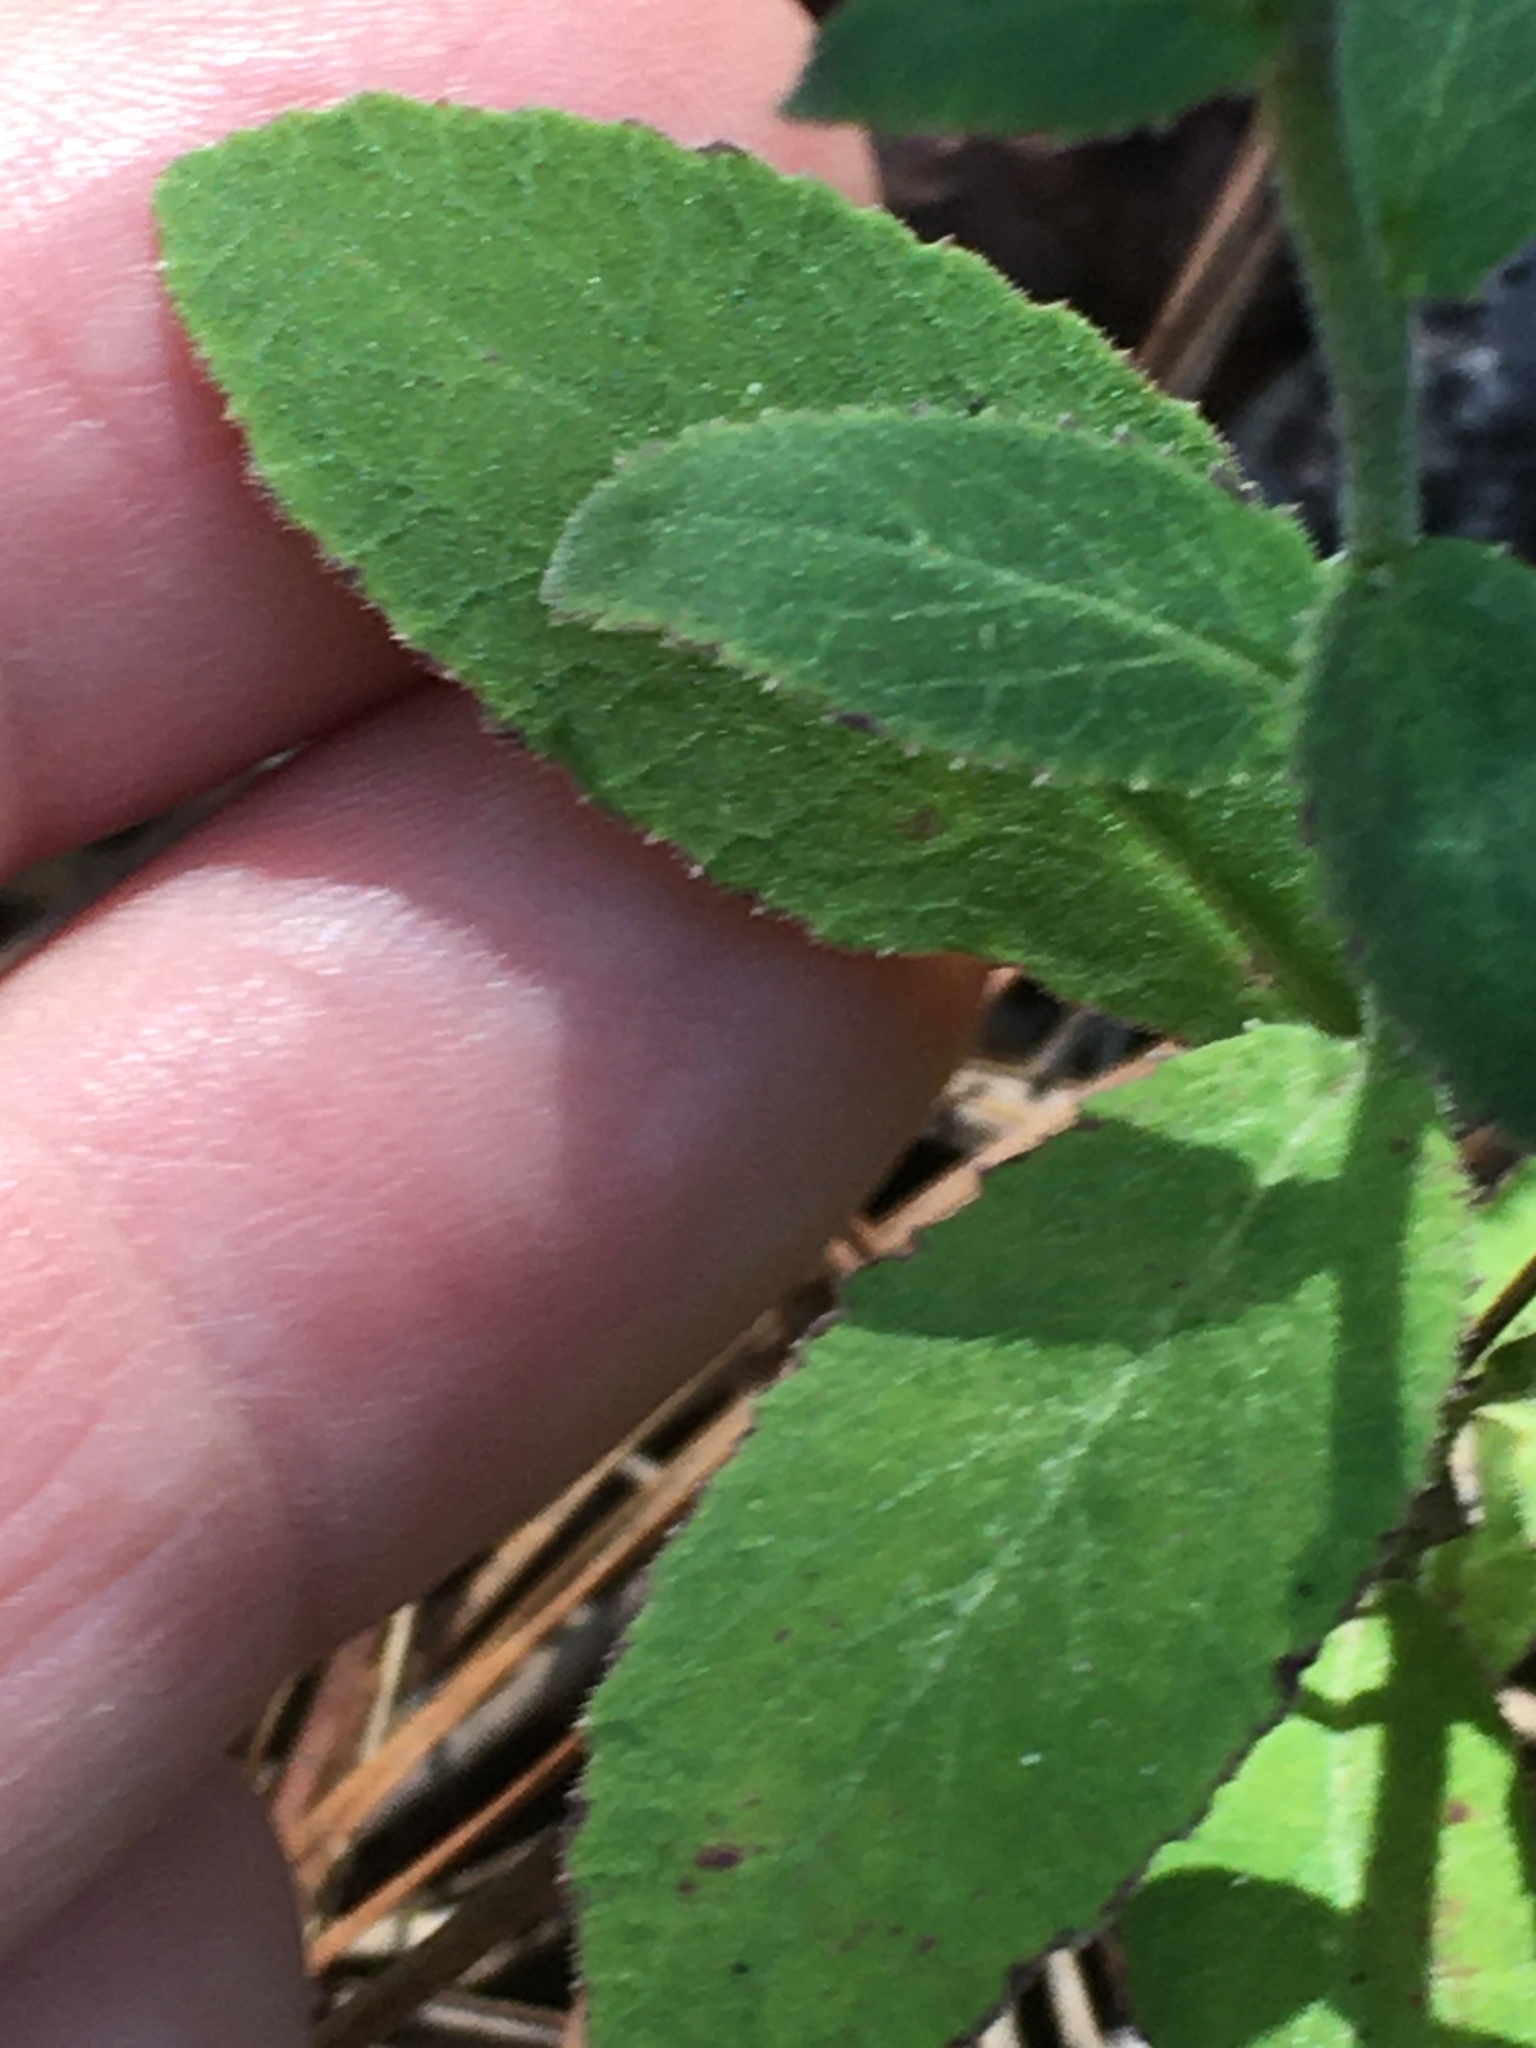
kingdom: Plantae
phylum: Tracheophyta
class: Magnoliopsida
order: Asterales
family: Campanulaceae
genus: Lobelia
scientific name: Lobelia puberula
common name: Purple dewdrop
